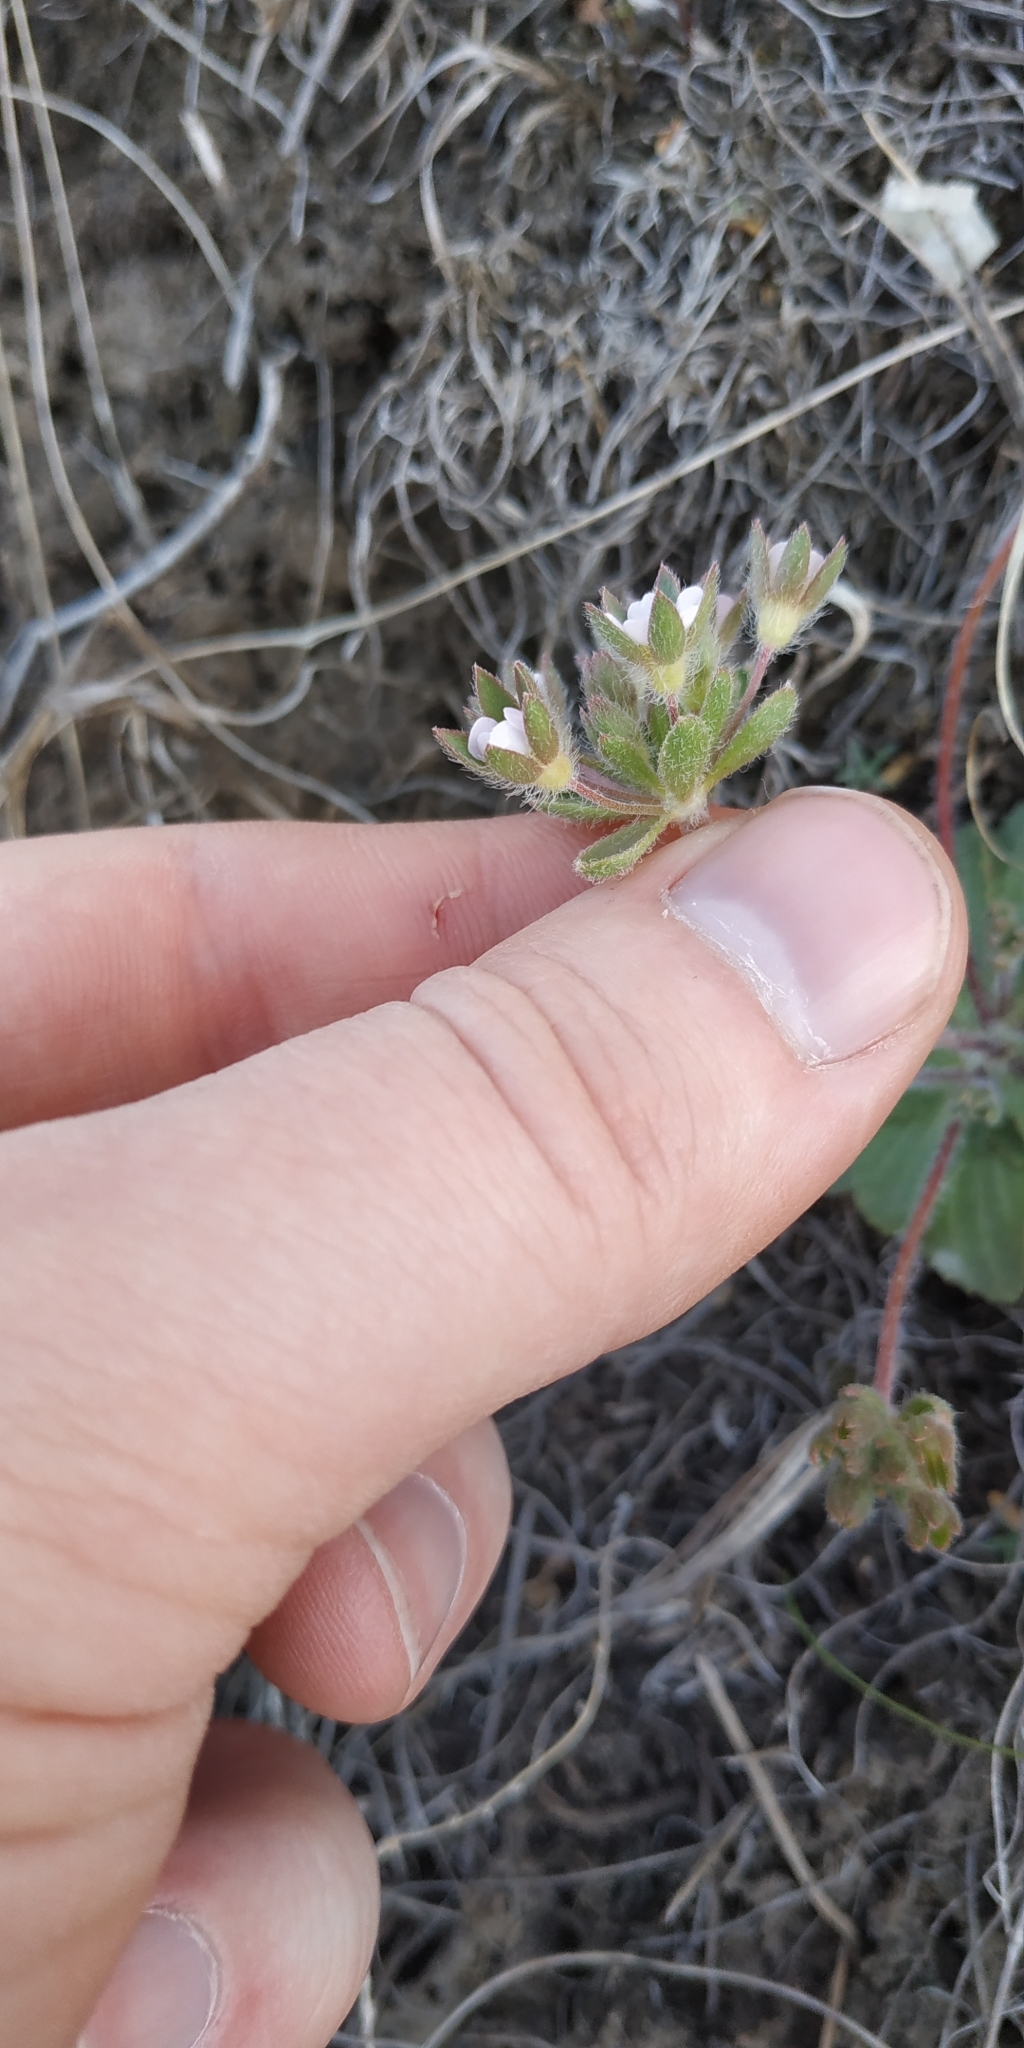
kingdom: Plantae
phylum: Tracheophyta
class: Magnoliopsida
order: Ericales
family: Primulaceae
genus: Androsace
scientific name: Androsace maxima
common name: Annual androsace
